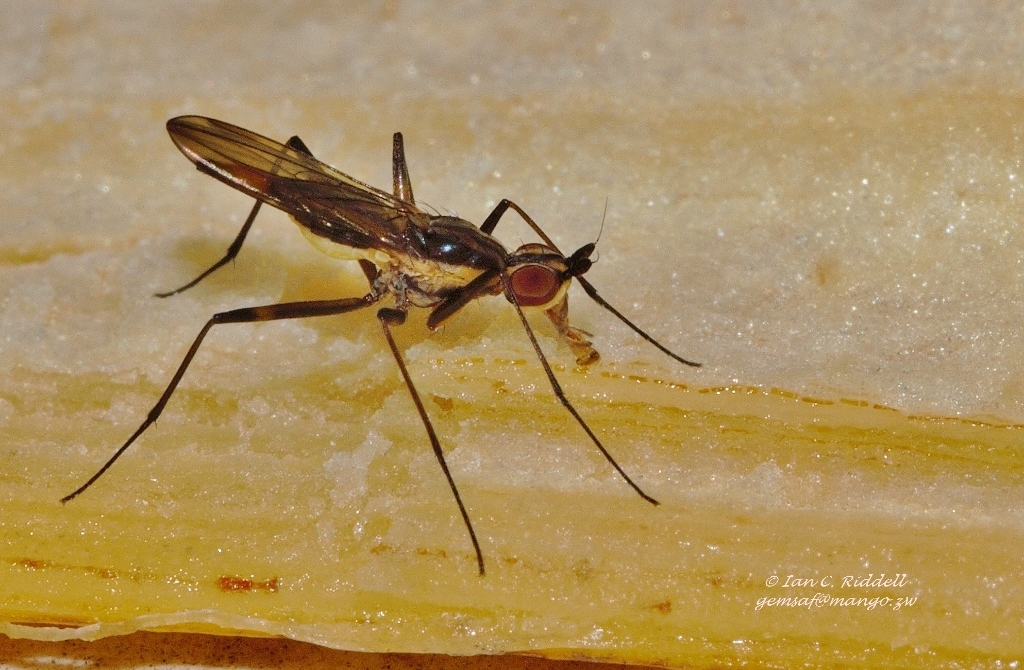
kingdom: Animalia
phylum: Arthropoda
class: Insecta
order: Diptera
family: Neriidae
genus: Chaetonerius
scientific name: Chaetonerius
